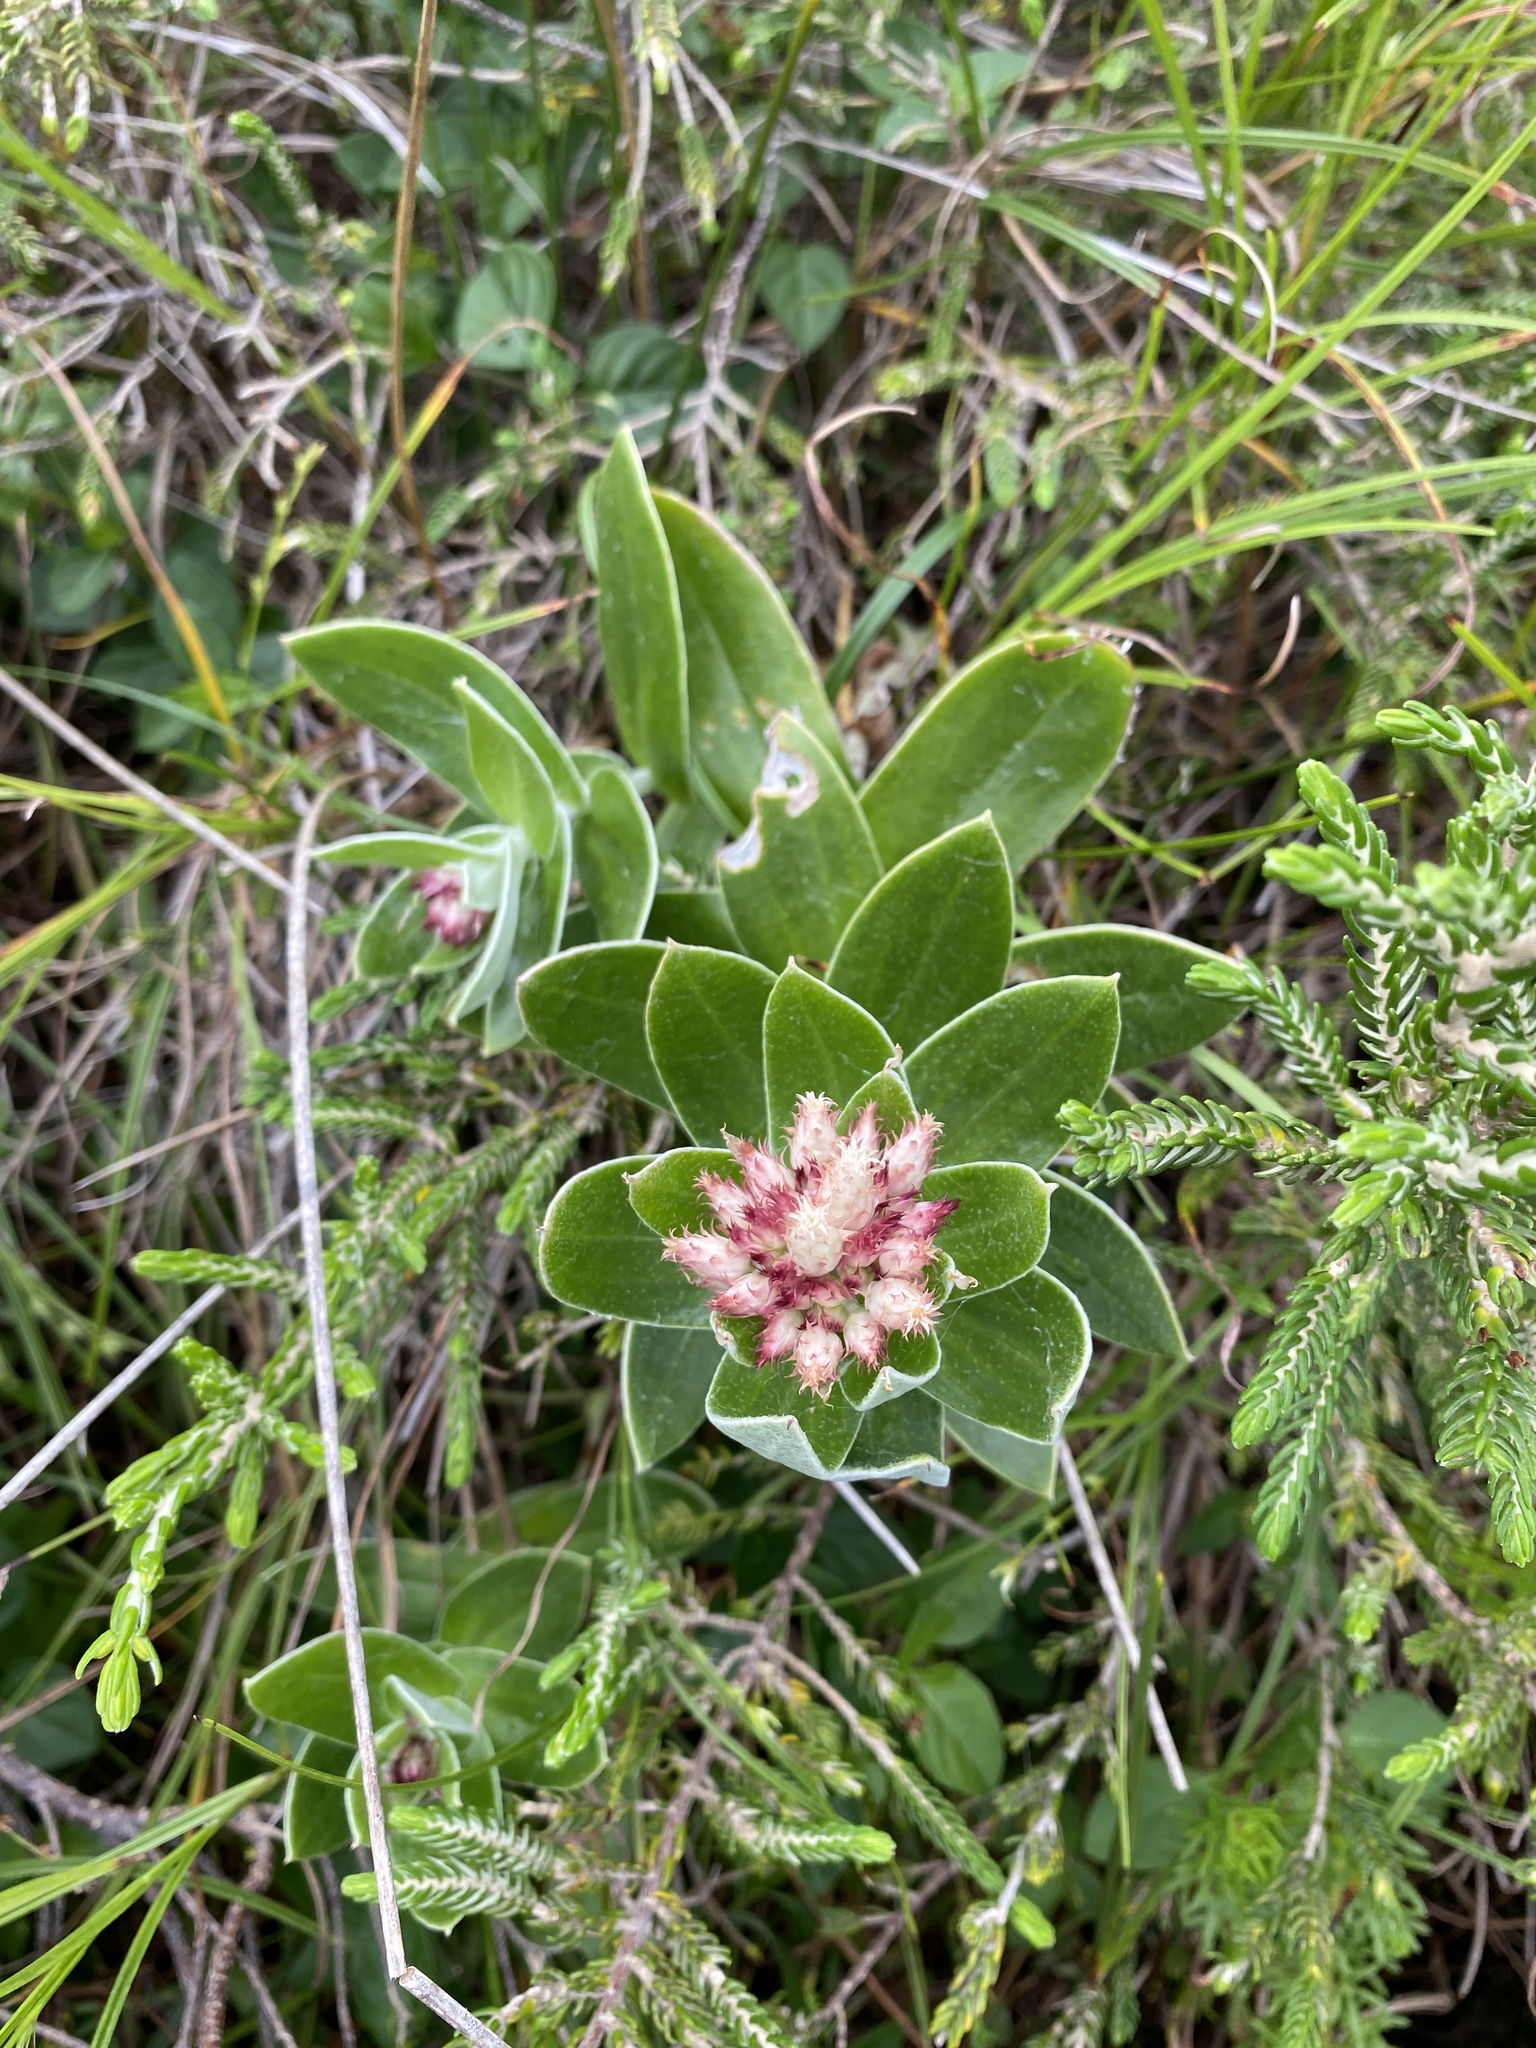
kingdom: Plantae
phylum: Tracheophyta
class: Magnoliopsida
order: Asterales
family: Asteraceae
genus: Helichrysum
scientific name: Helichrysum appendiculatum
